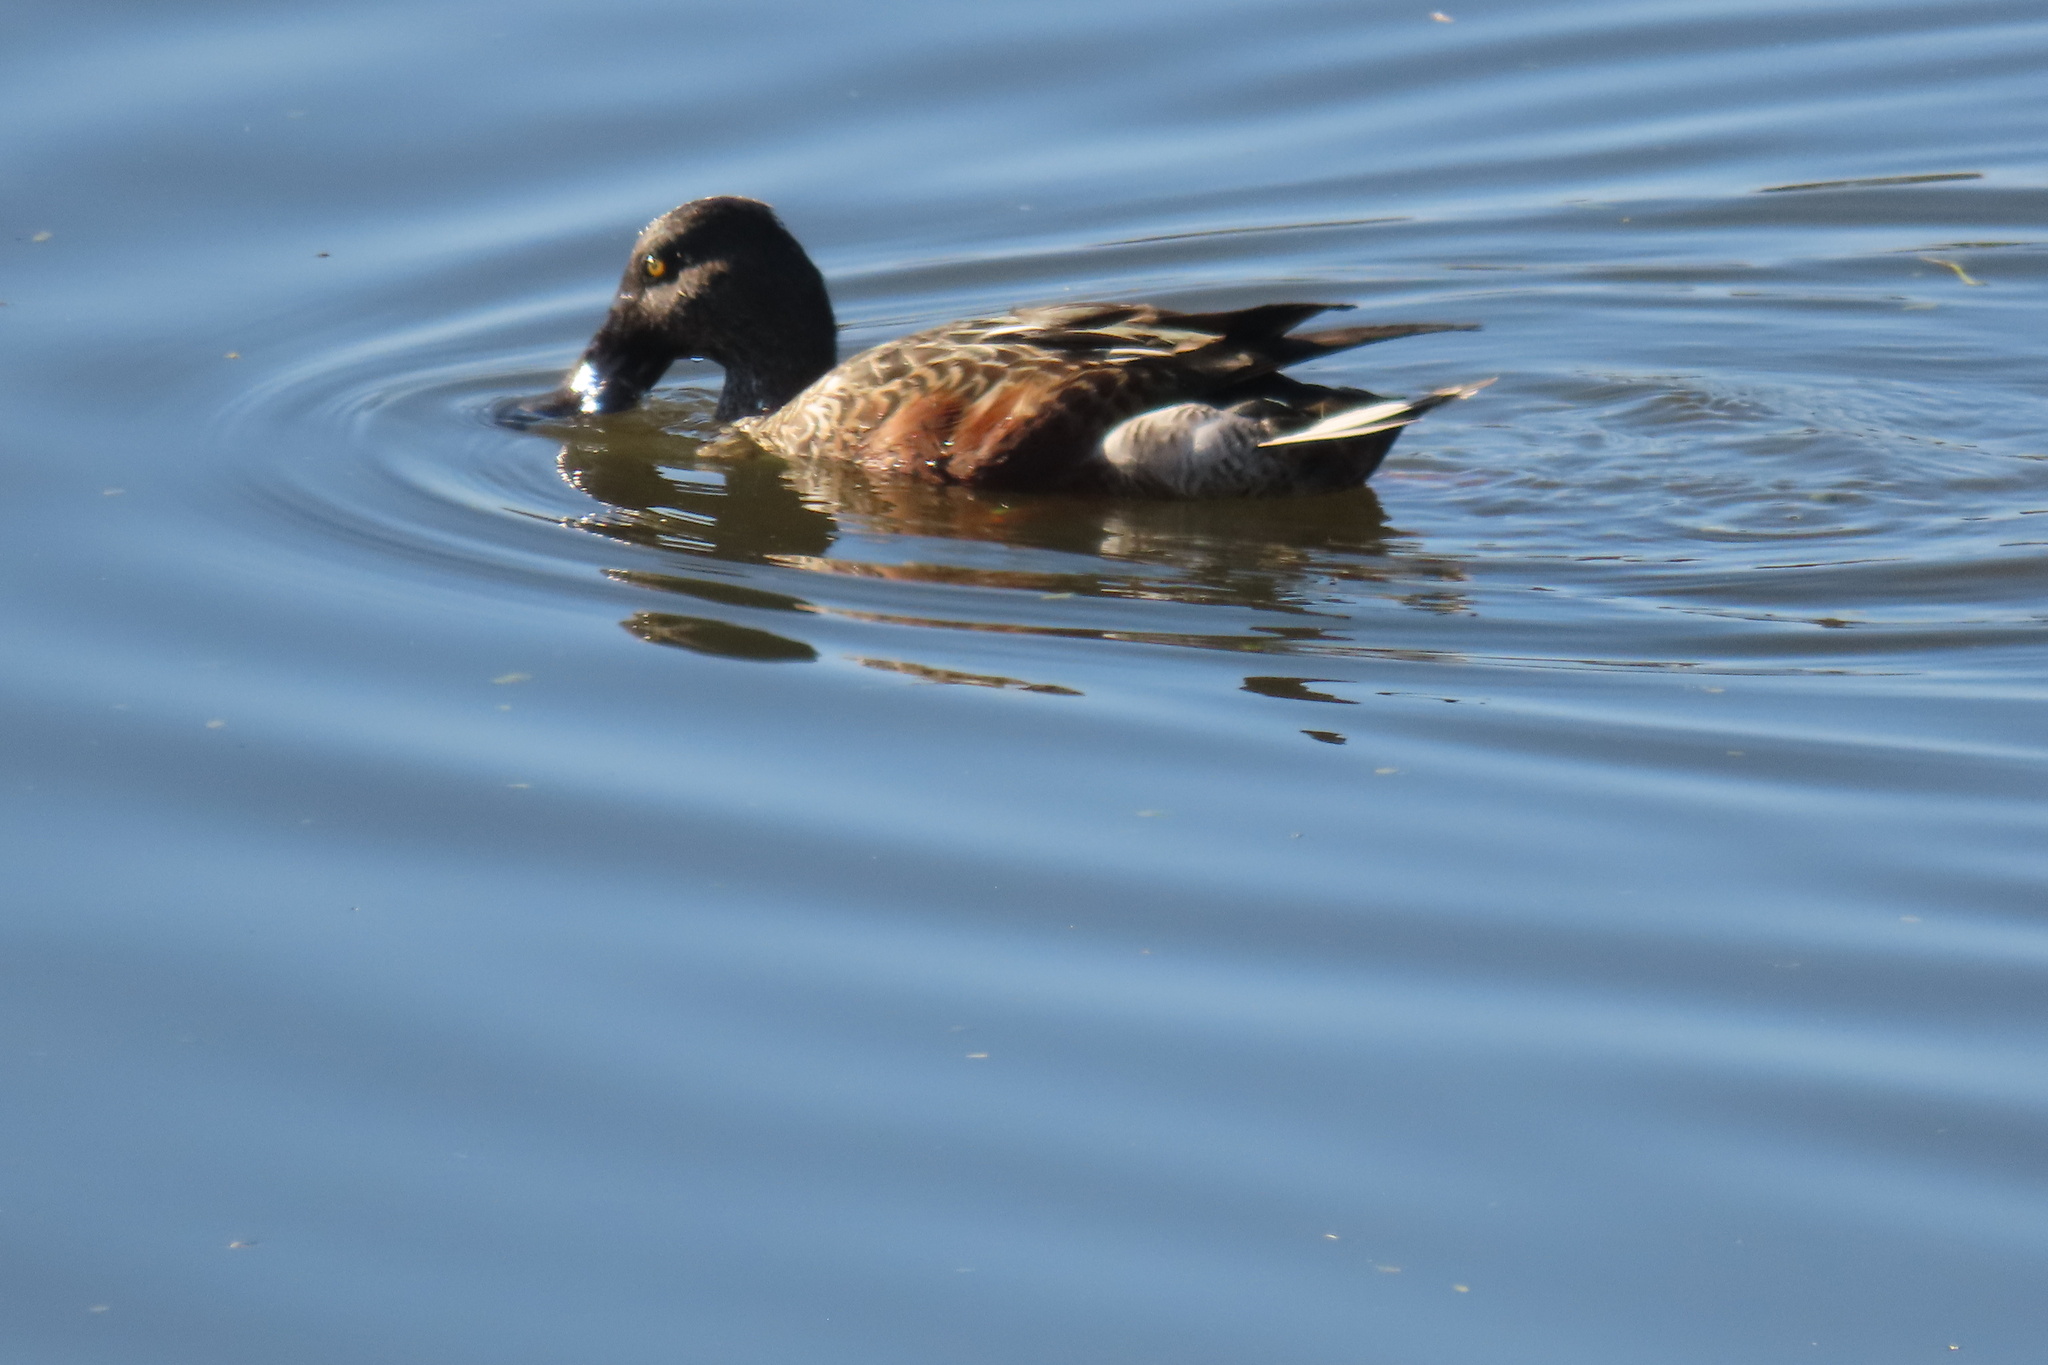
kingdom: Animalia
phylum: Chordata
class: Aves
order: Anseriformes
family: Anatidae
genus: Spatula
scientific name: Spatula clypeata
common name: Northern shoveler
